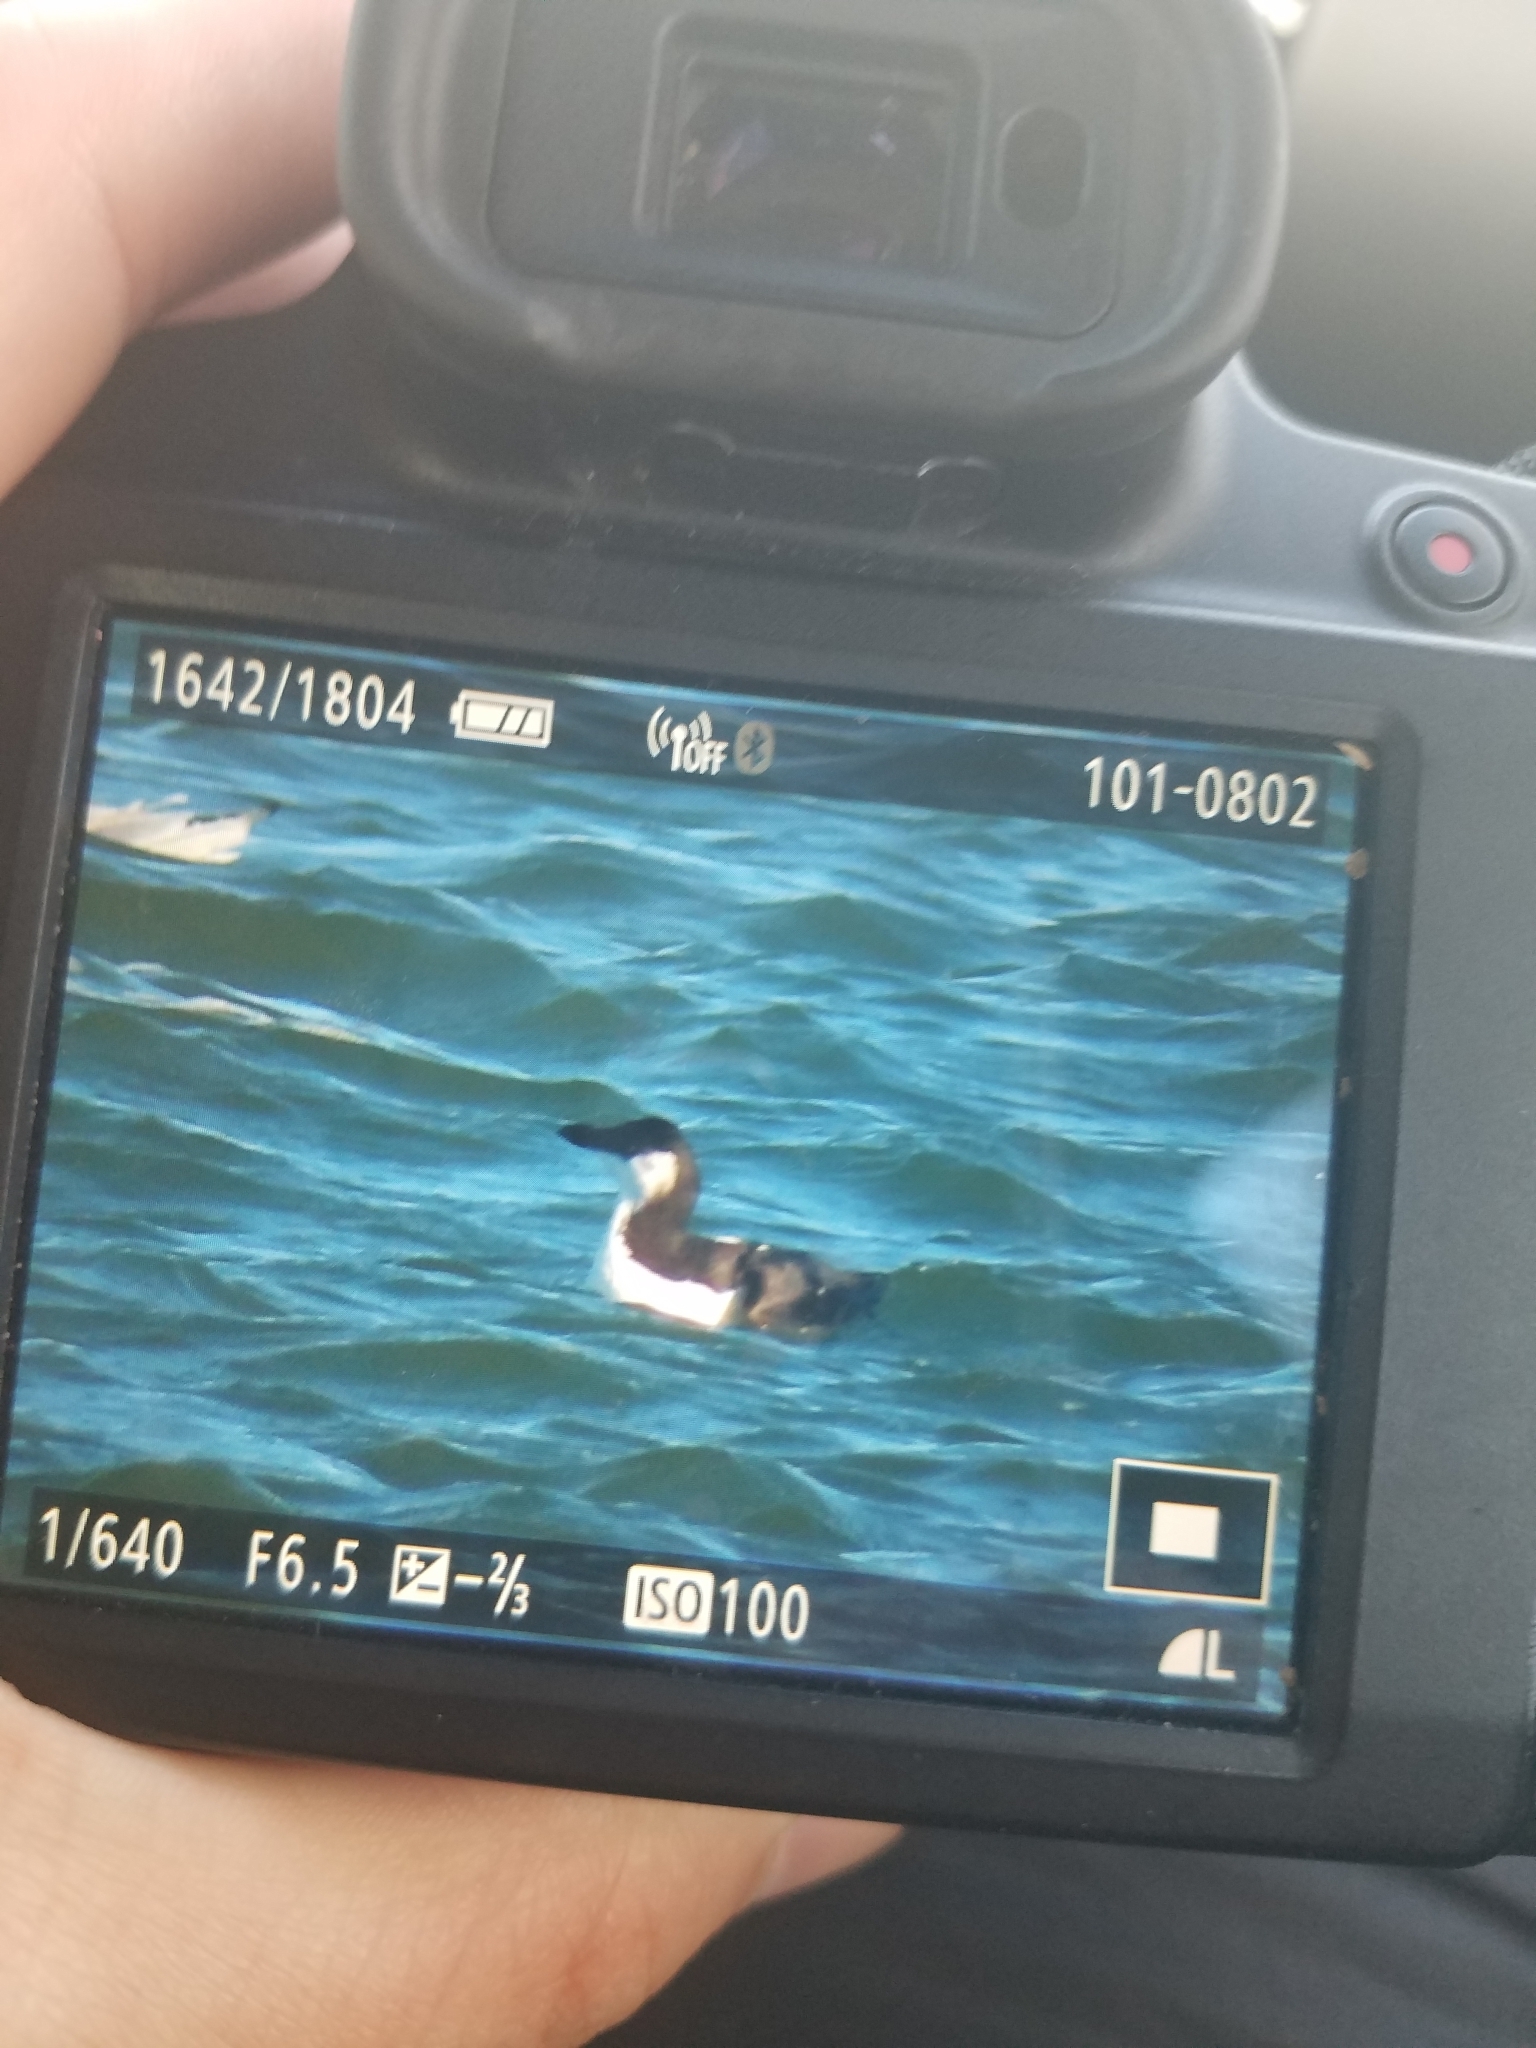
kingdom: Animalia
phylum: Chordata
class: Aves
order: Charadriiformes
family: Alcidae
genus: Alca
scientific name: Alca torda
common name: Razorbill
